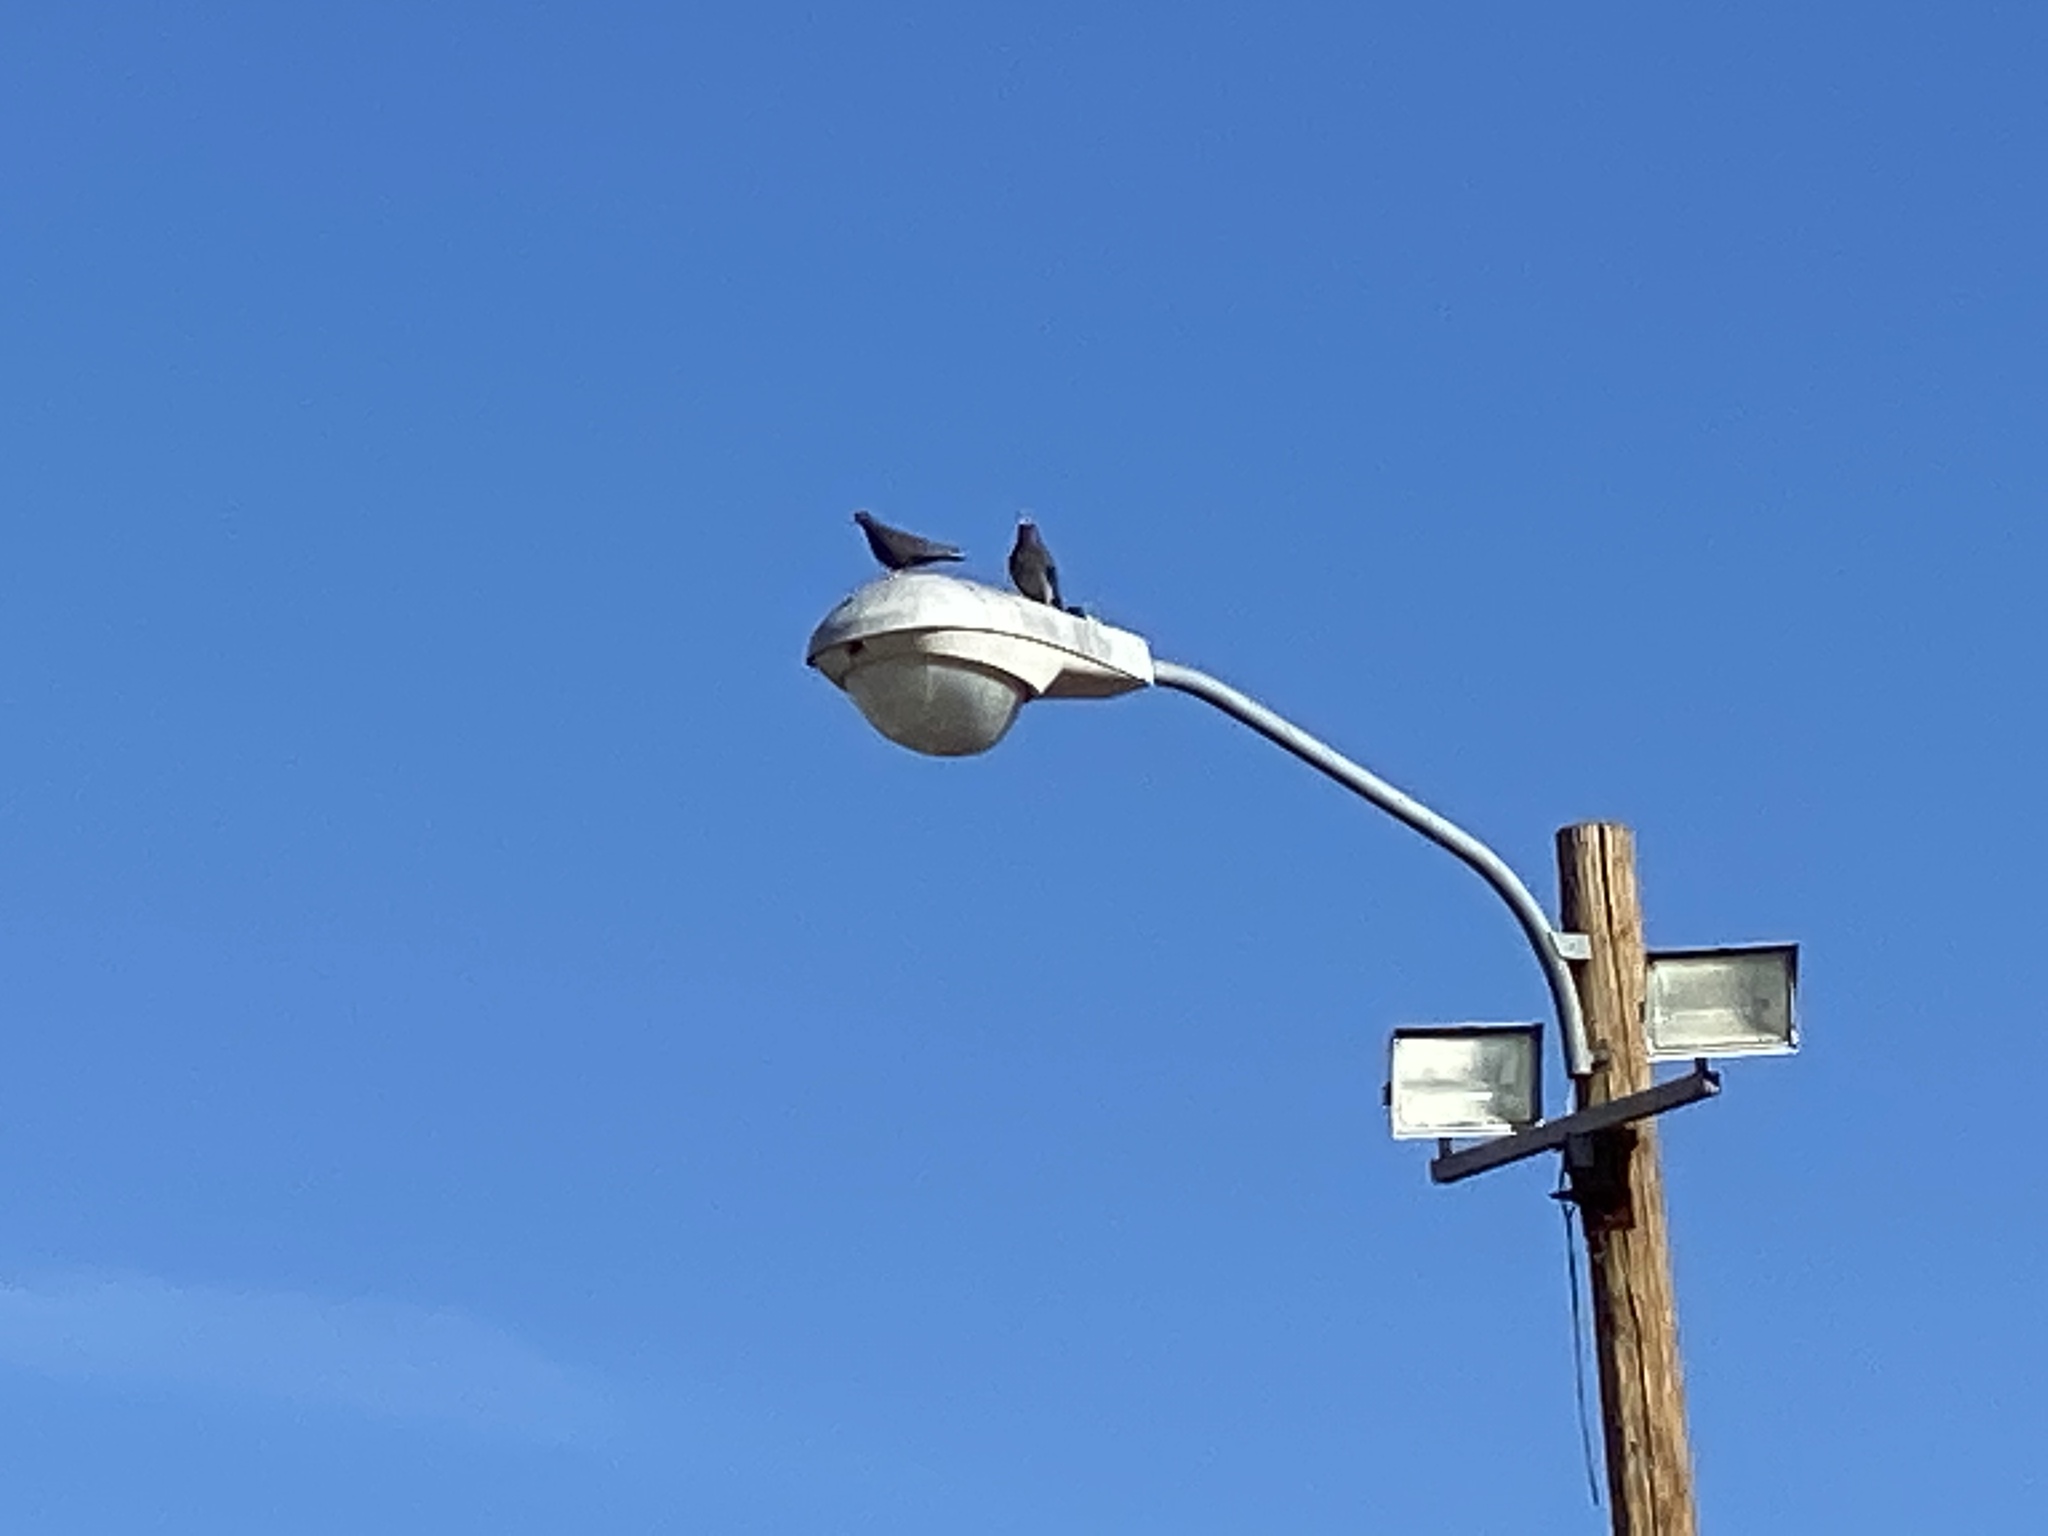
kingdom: Animalia
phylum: Chordata
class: Aves
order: Columbiformes
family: Columbidae
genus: Columba
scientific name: Columba livia
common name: Rock pigeon
